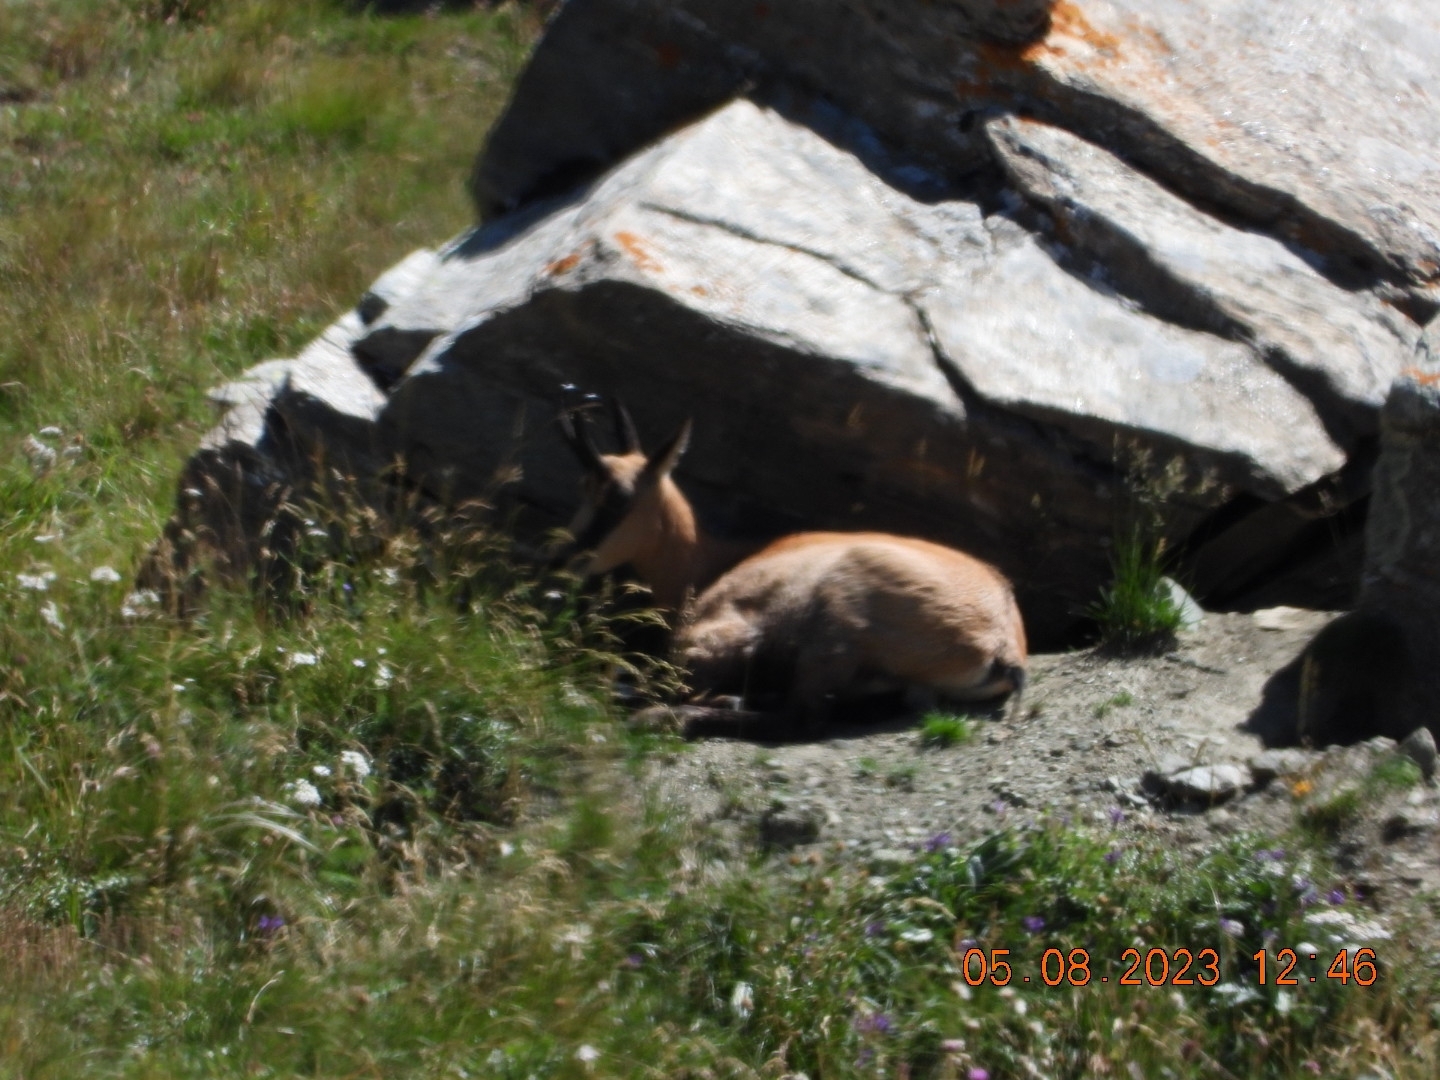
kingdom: Animalia
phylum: Chordata
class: Mammalia
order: Artiodactyla
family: Bovidae
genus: Rupicapra
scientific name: Rupicapra rupicapra
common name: Chamois
